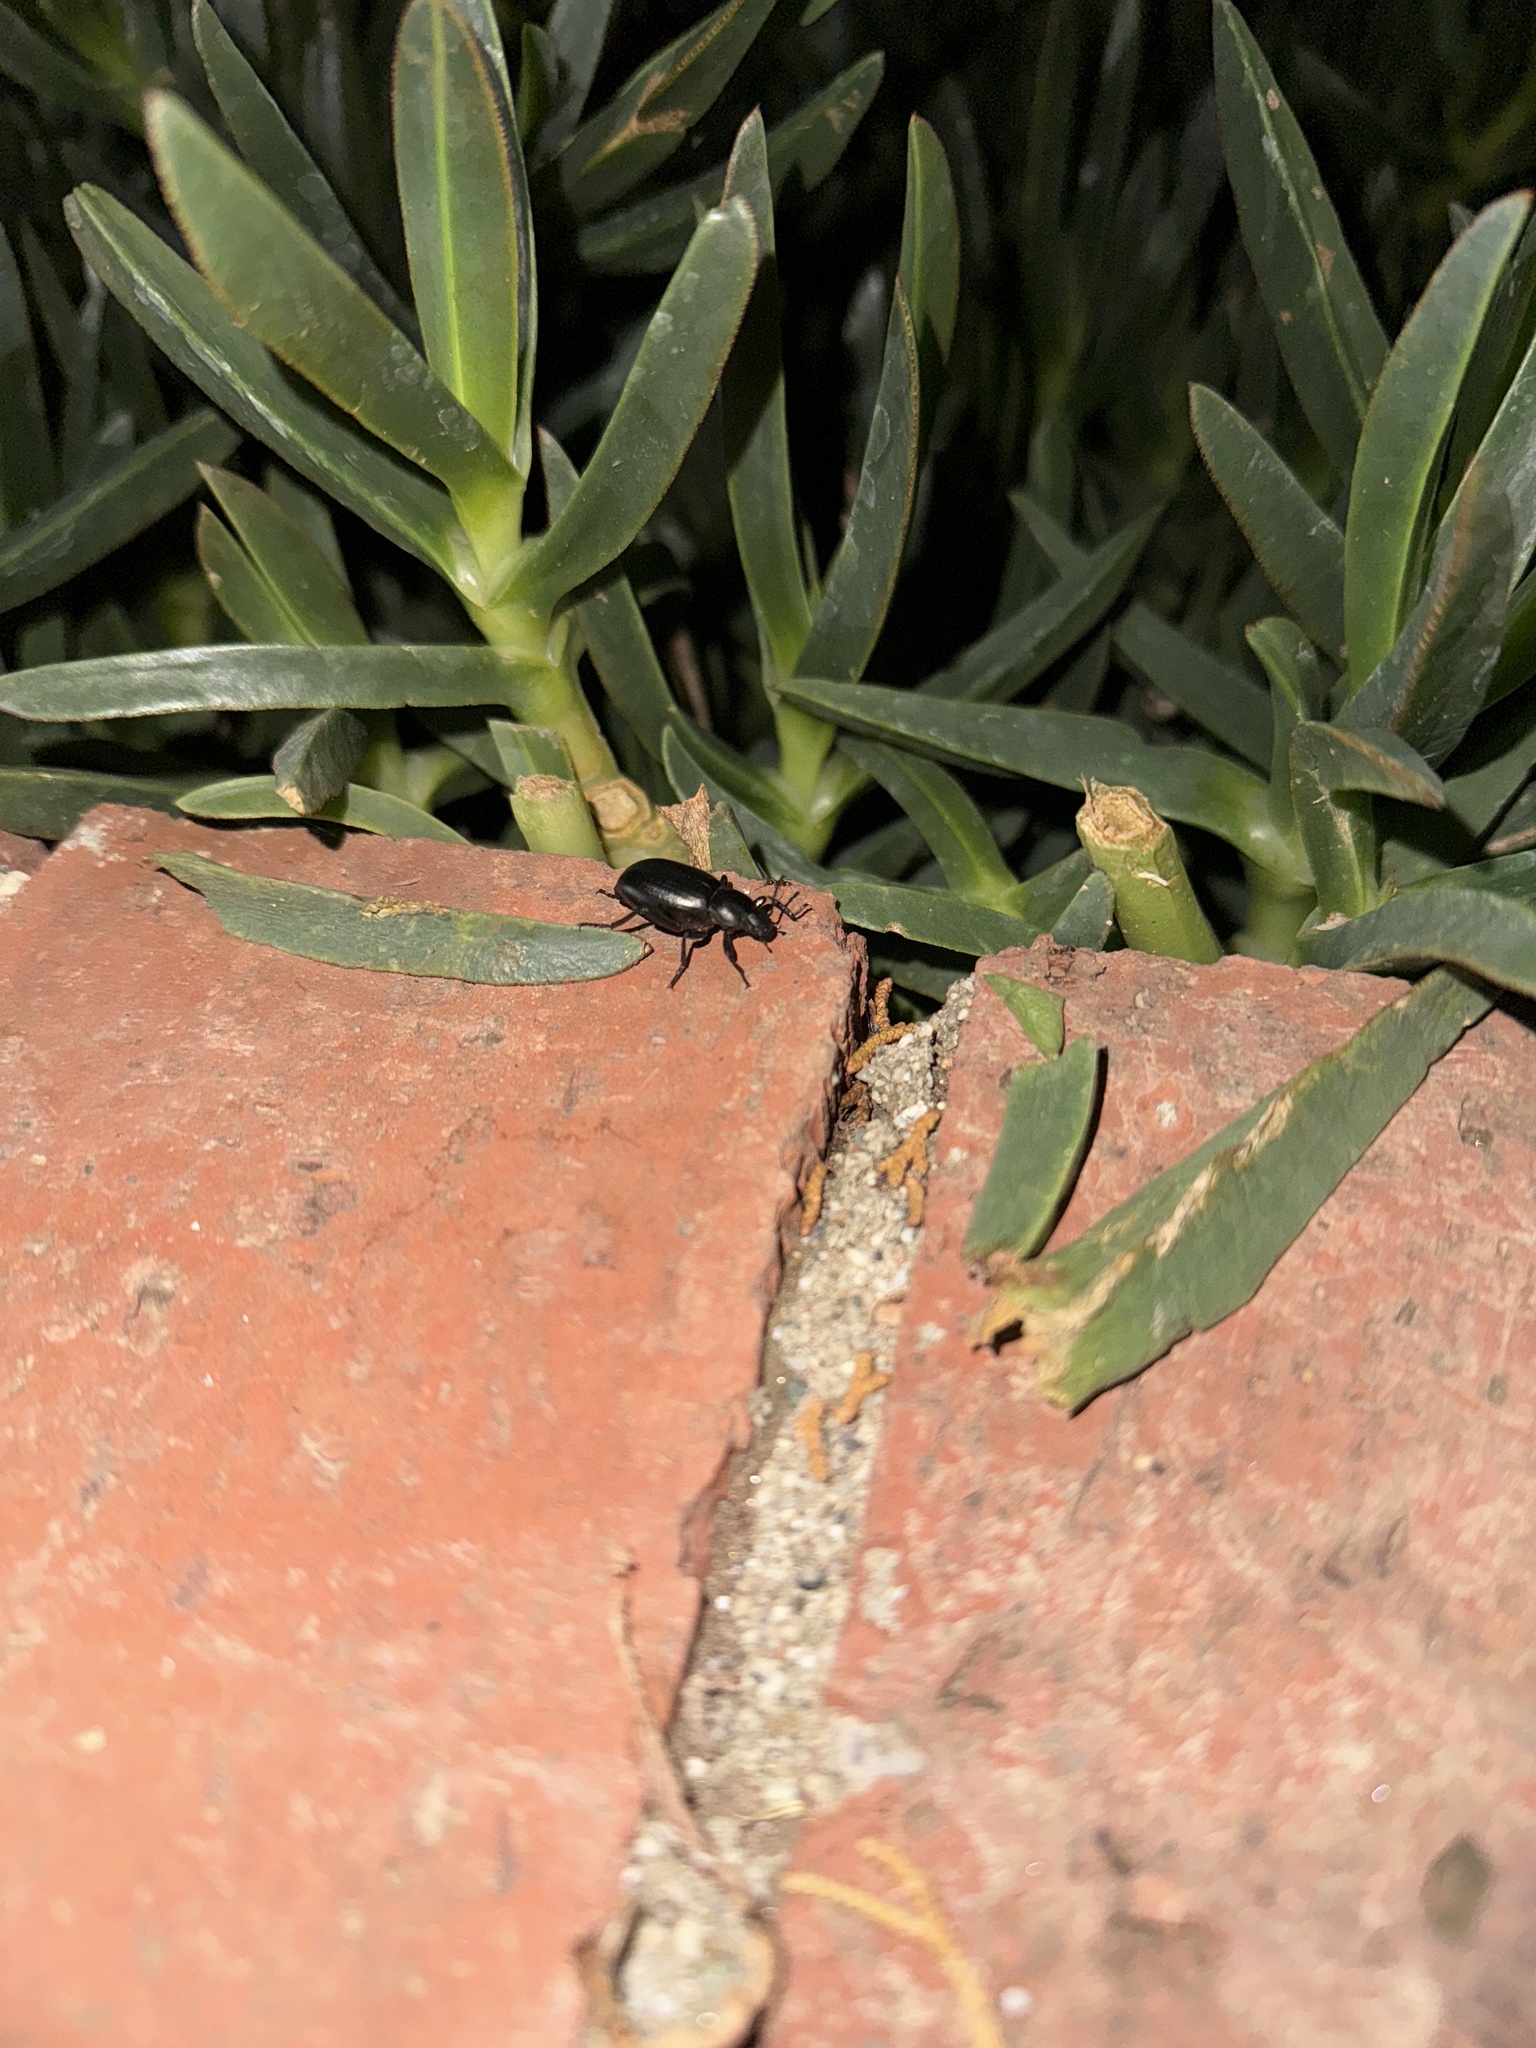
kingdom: Animalia
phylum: Arthropoda
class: Insecta
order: Coleoptera
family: Tenebrionidae
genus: Eleodes
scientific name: Eleodes carbonaria
